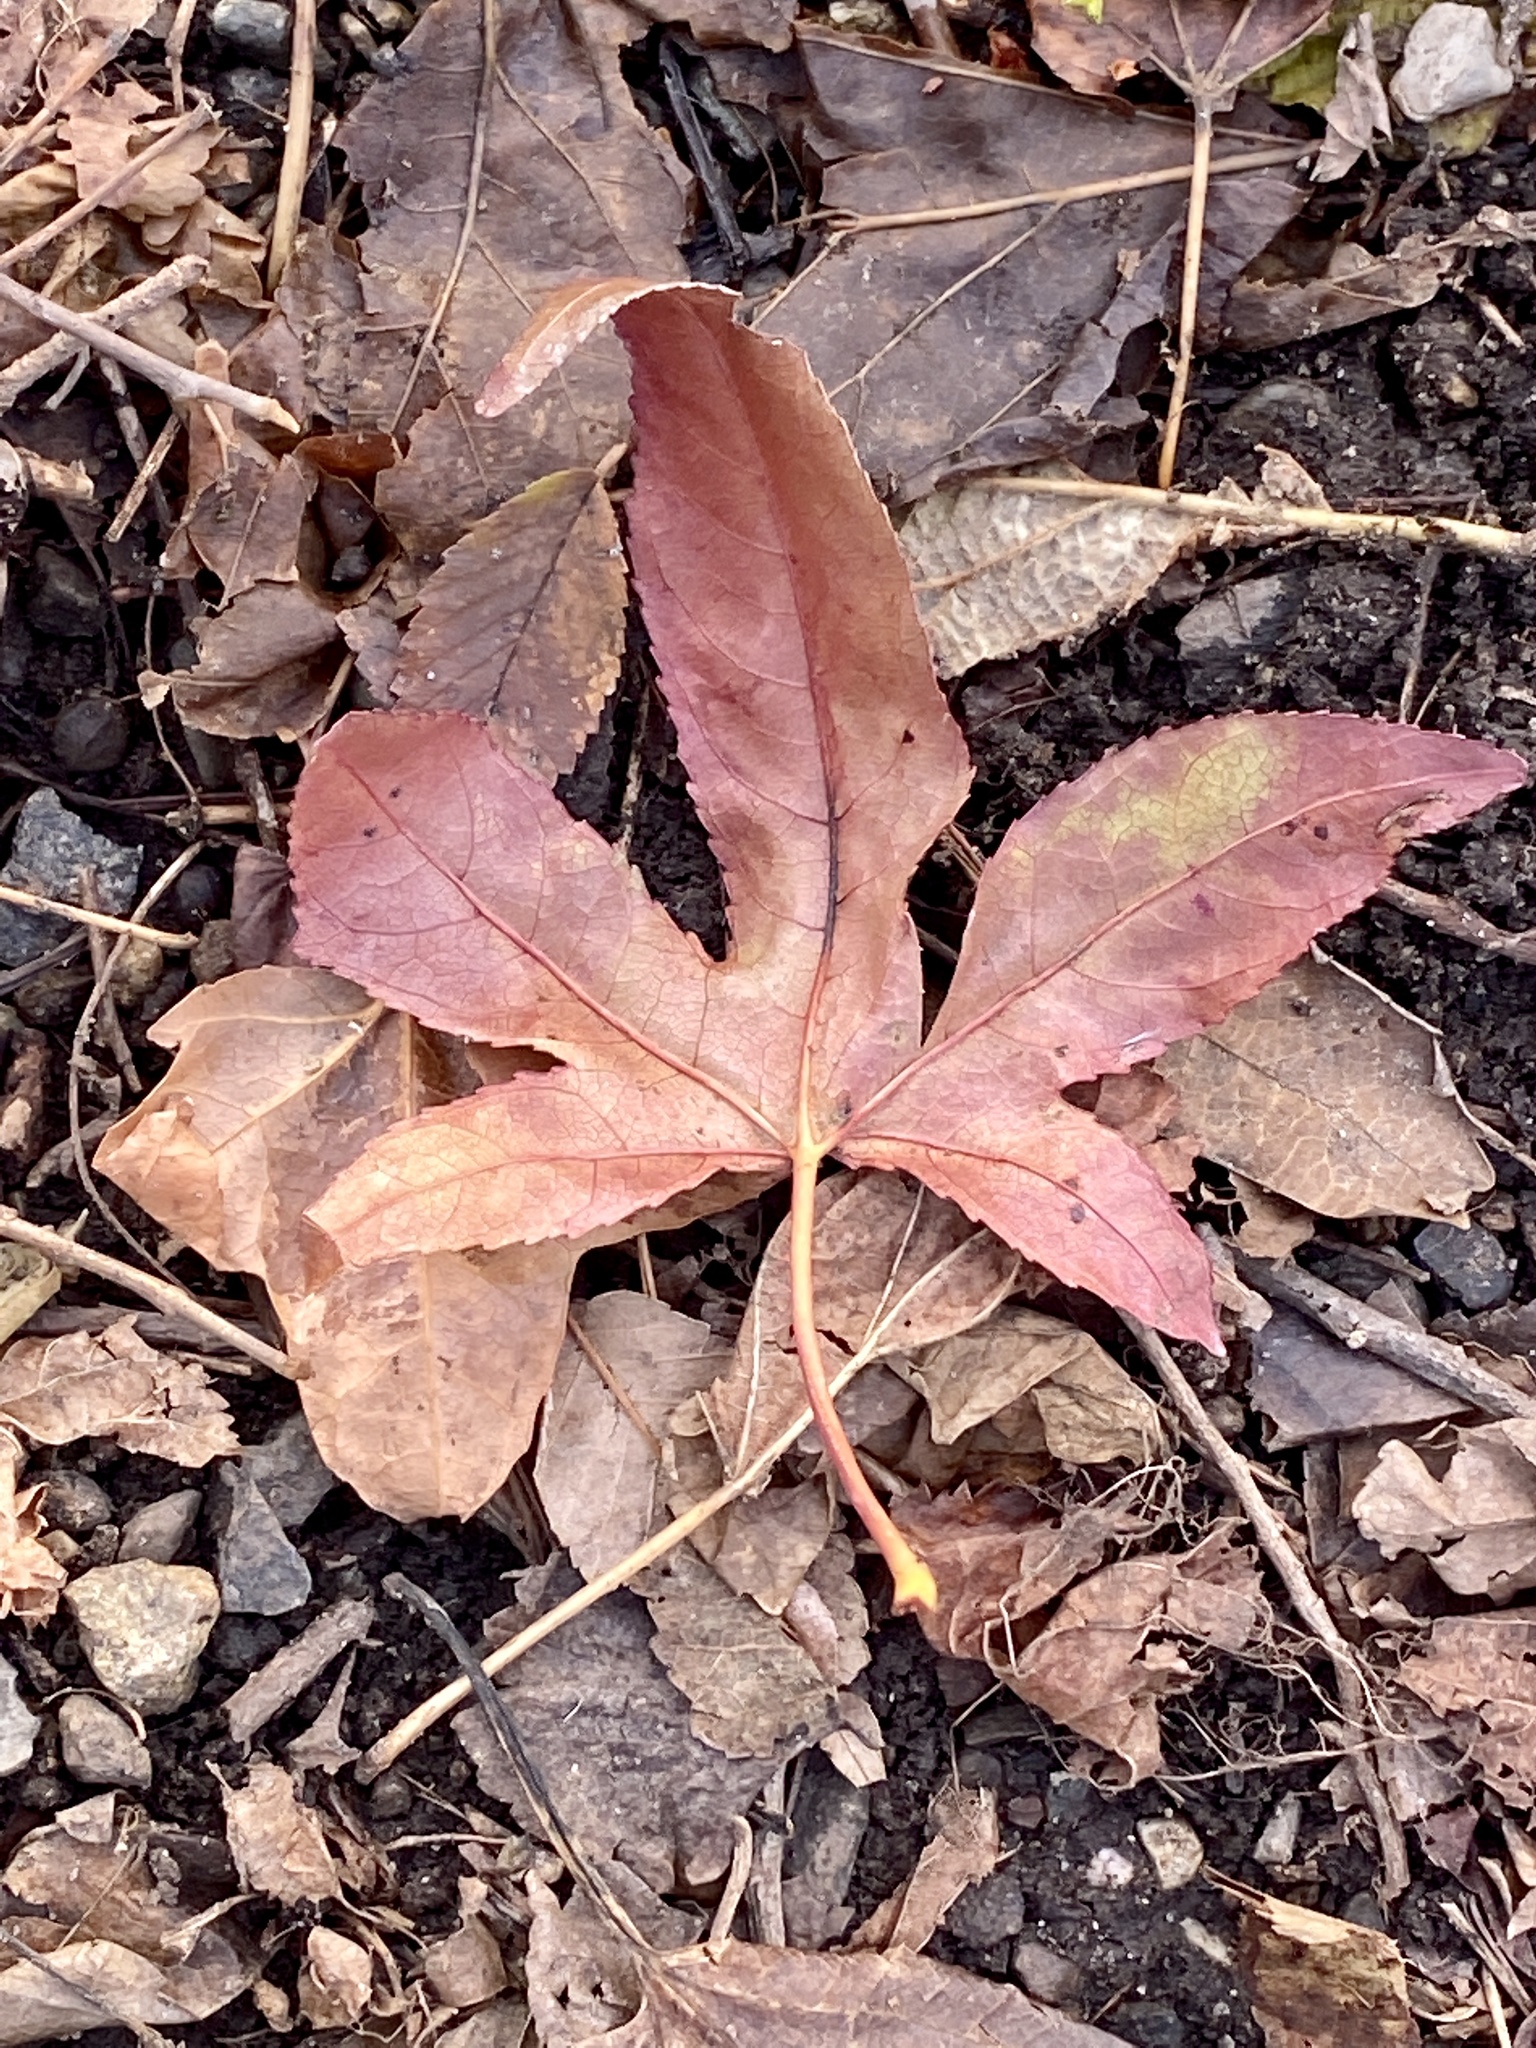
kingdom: Plantae
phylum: Tracheophyta
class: Magnoliopsida
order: Saxifragales
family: Altingiaceae
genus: Liquidambar
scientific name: Liquidambar styraciflua
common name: Sweet gum
